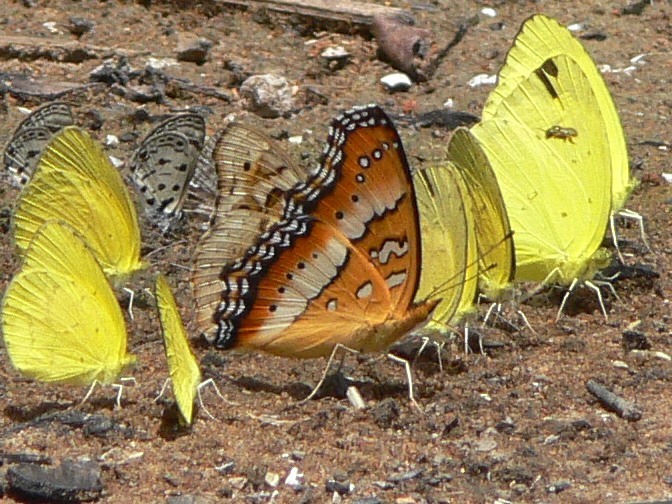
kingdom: Animalia
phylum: Arthropoda
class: Insecta
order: Lepidoptera
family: Nymphalidae
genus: Precis
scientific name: Precis ceryne
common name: Marsh commodore
